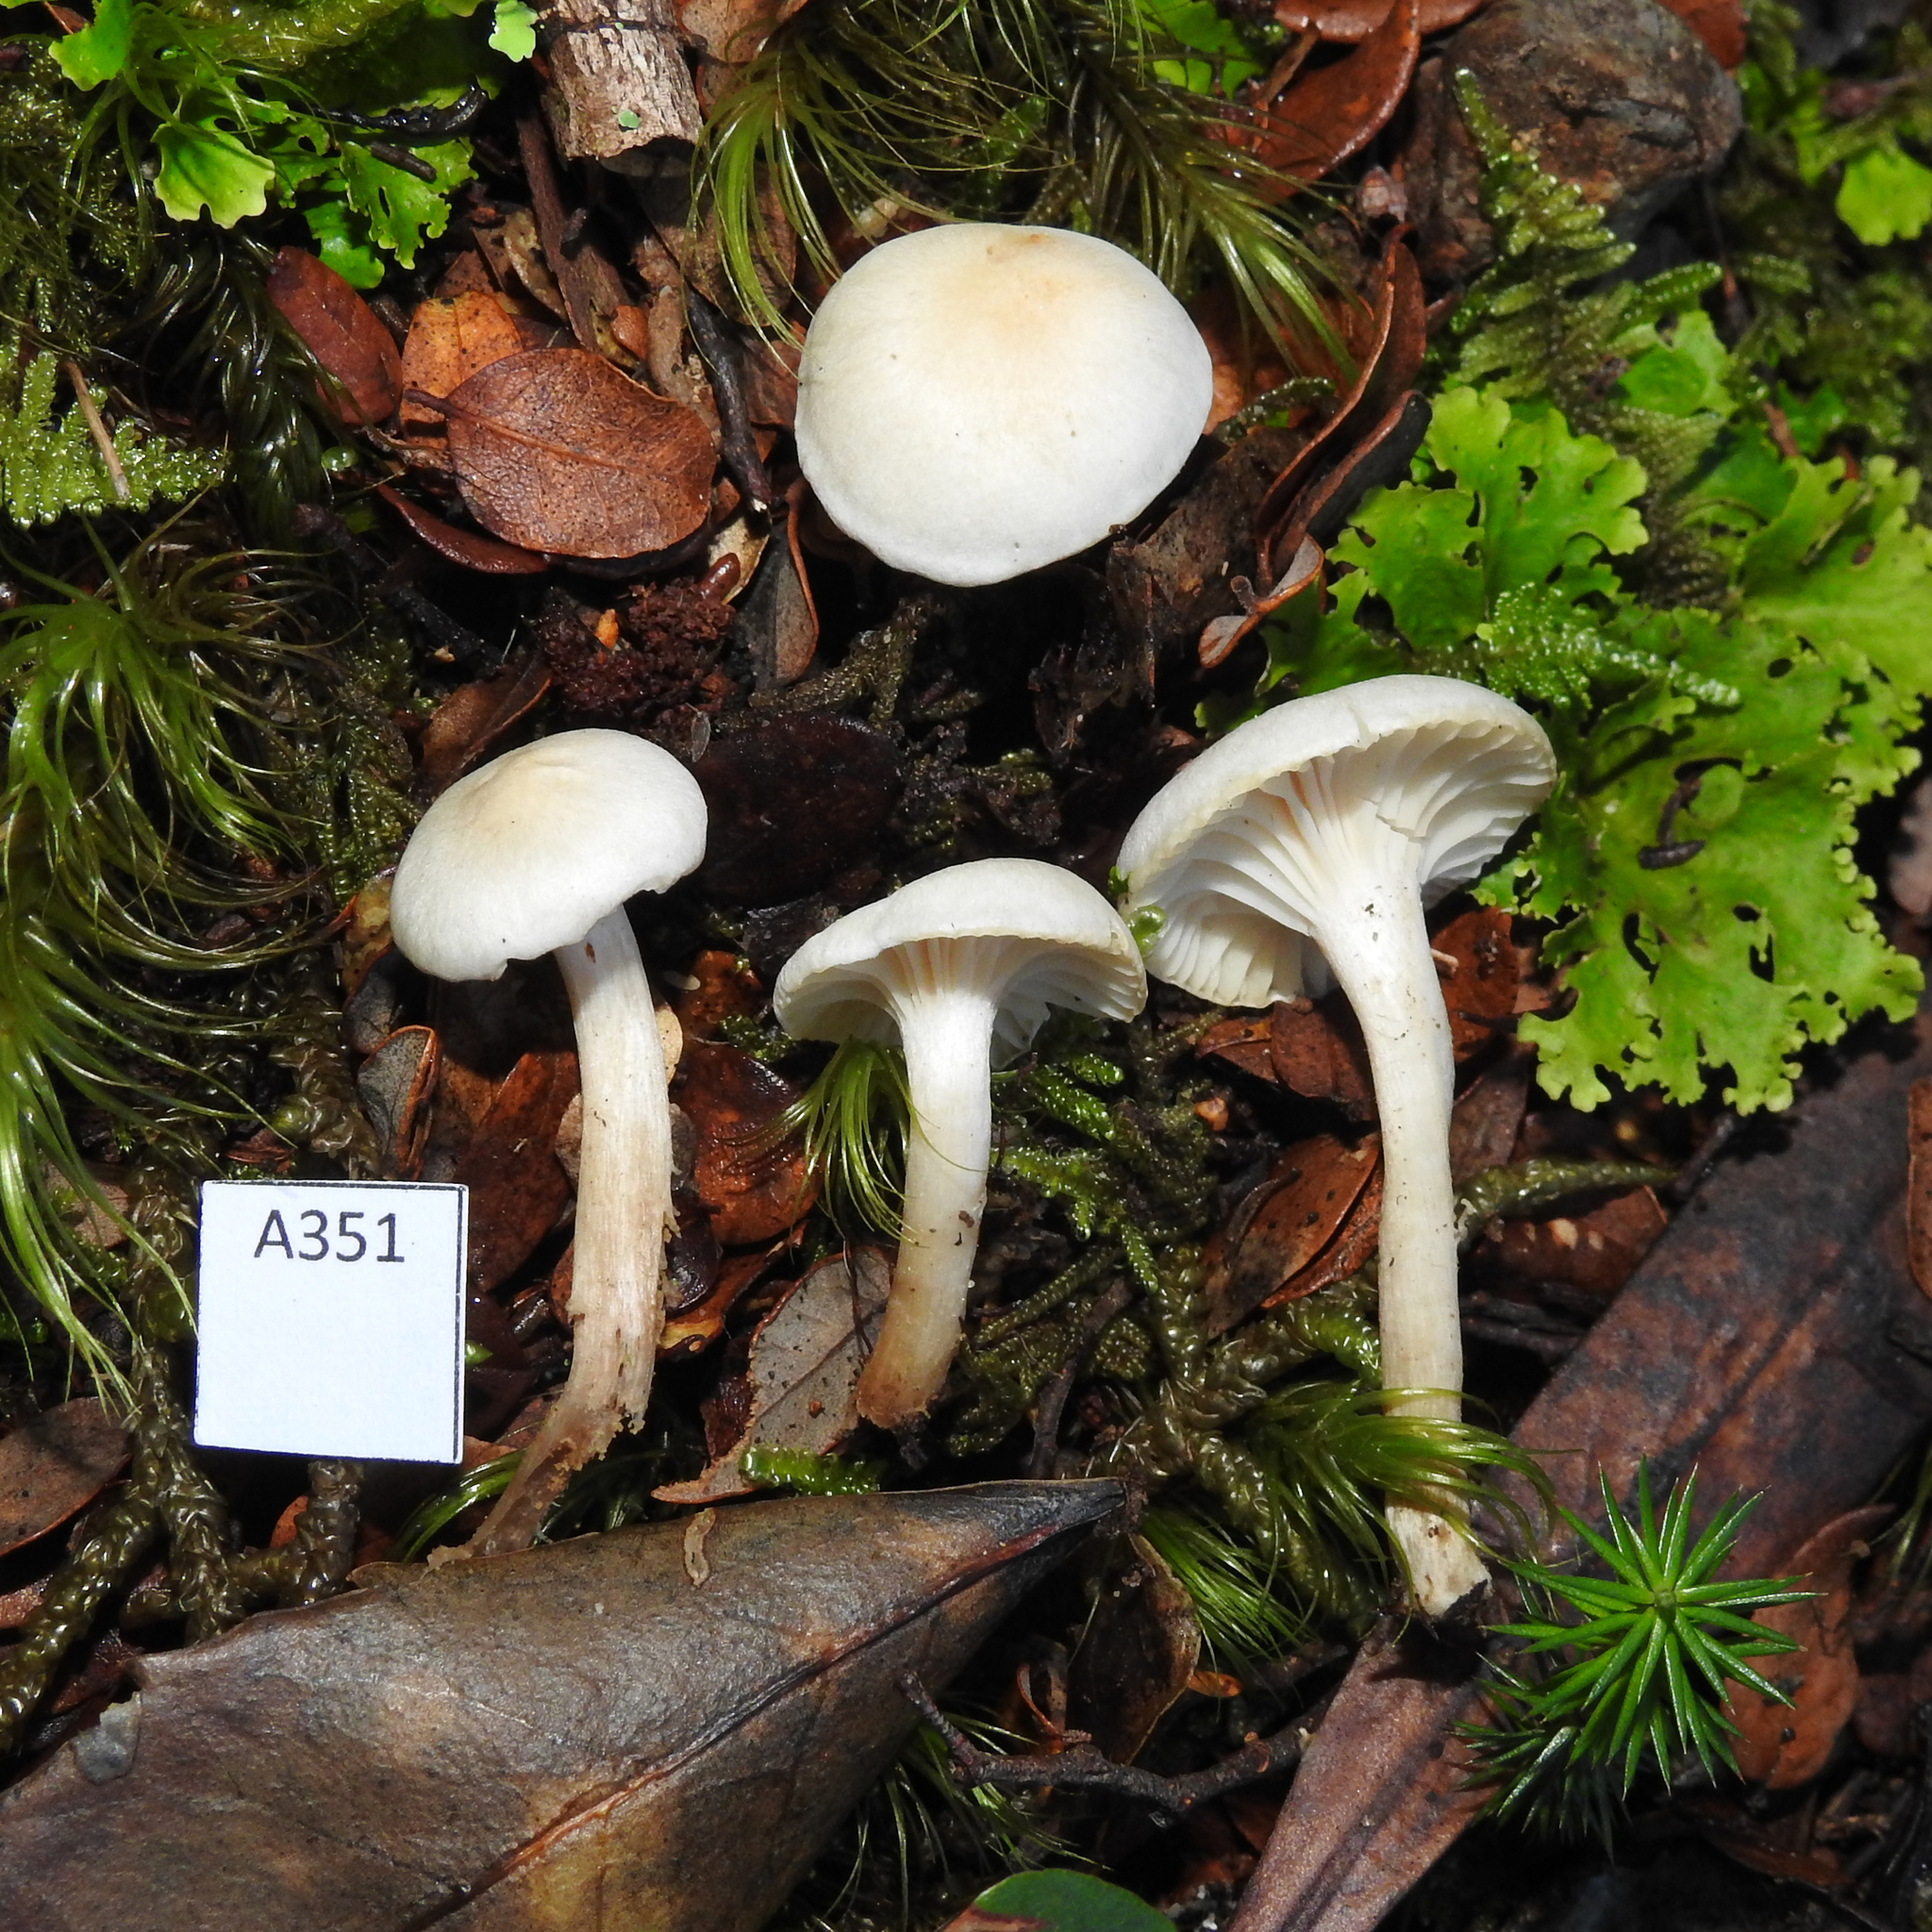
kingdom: Fungi
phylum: Basidiomycota
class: Agaricomycetes
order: Agaricales
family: Hygrophoraceae
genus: Cuphophyllus
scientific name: Cuphophyllus
